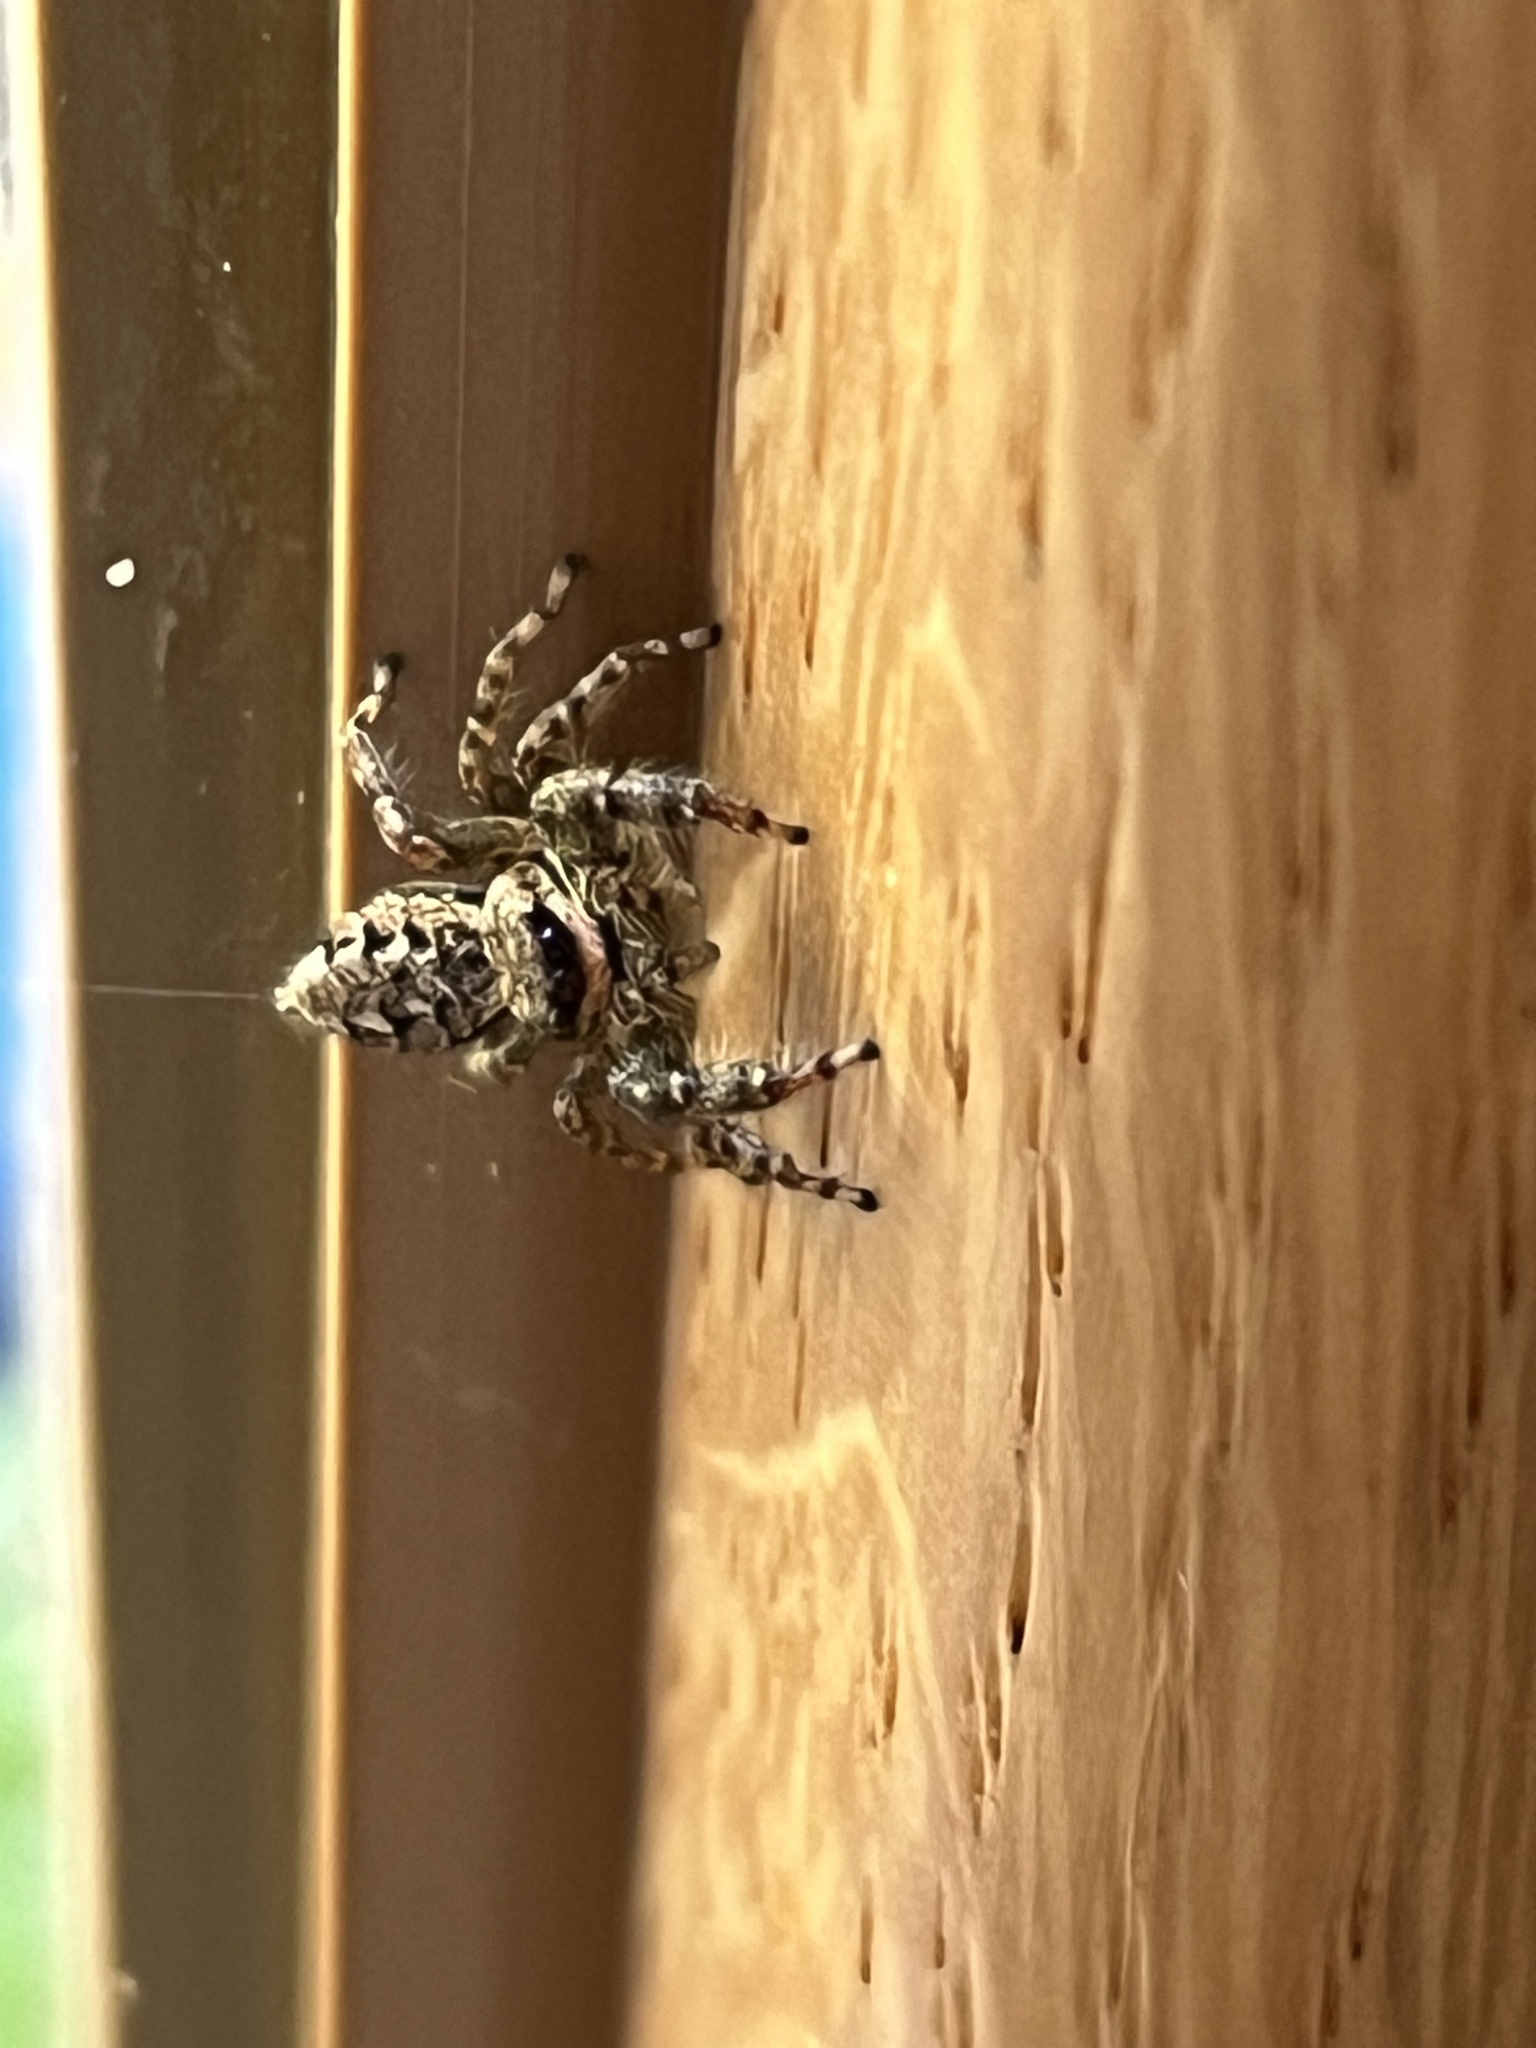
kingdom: Animalia
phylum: Arthropoda
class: Arachnida
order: Araneae
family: Salticidae
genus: Marpissa
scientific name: Marpissa muscosa
